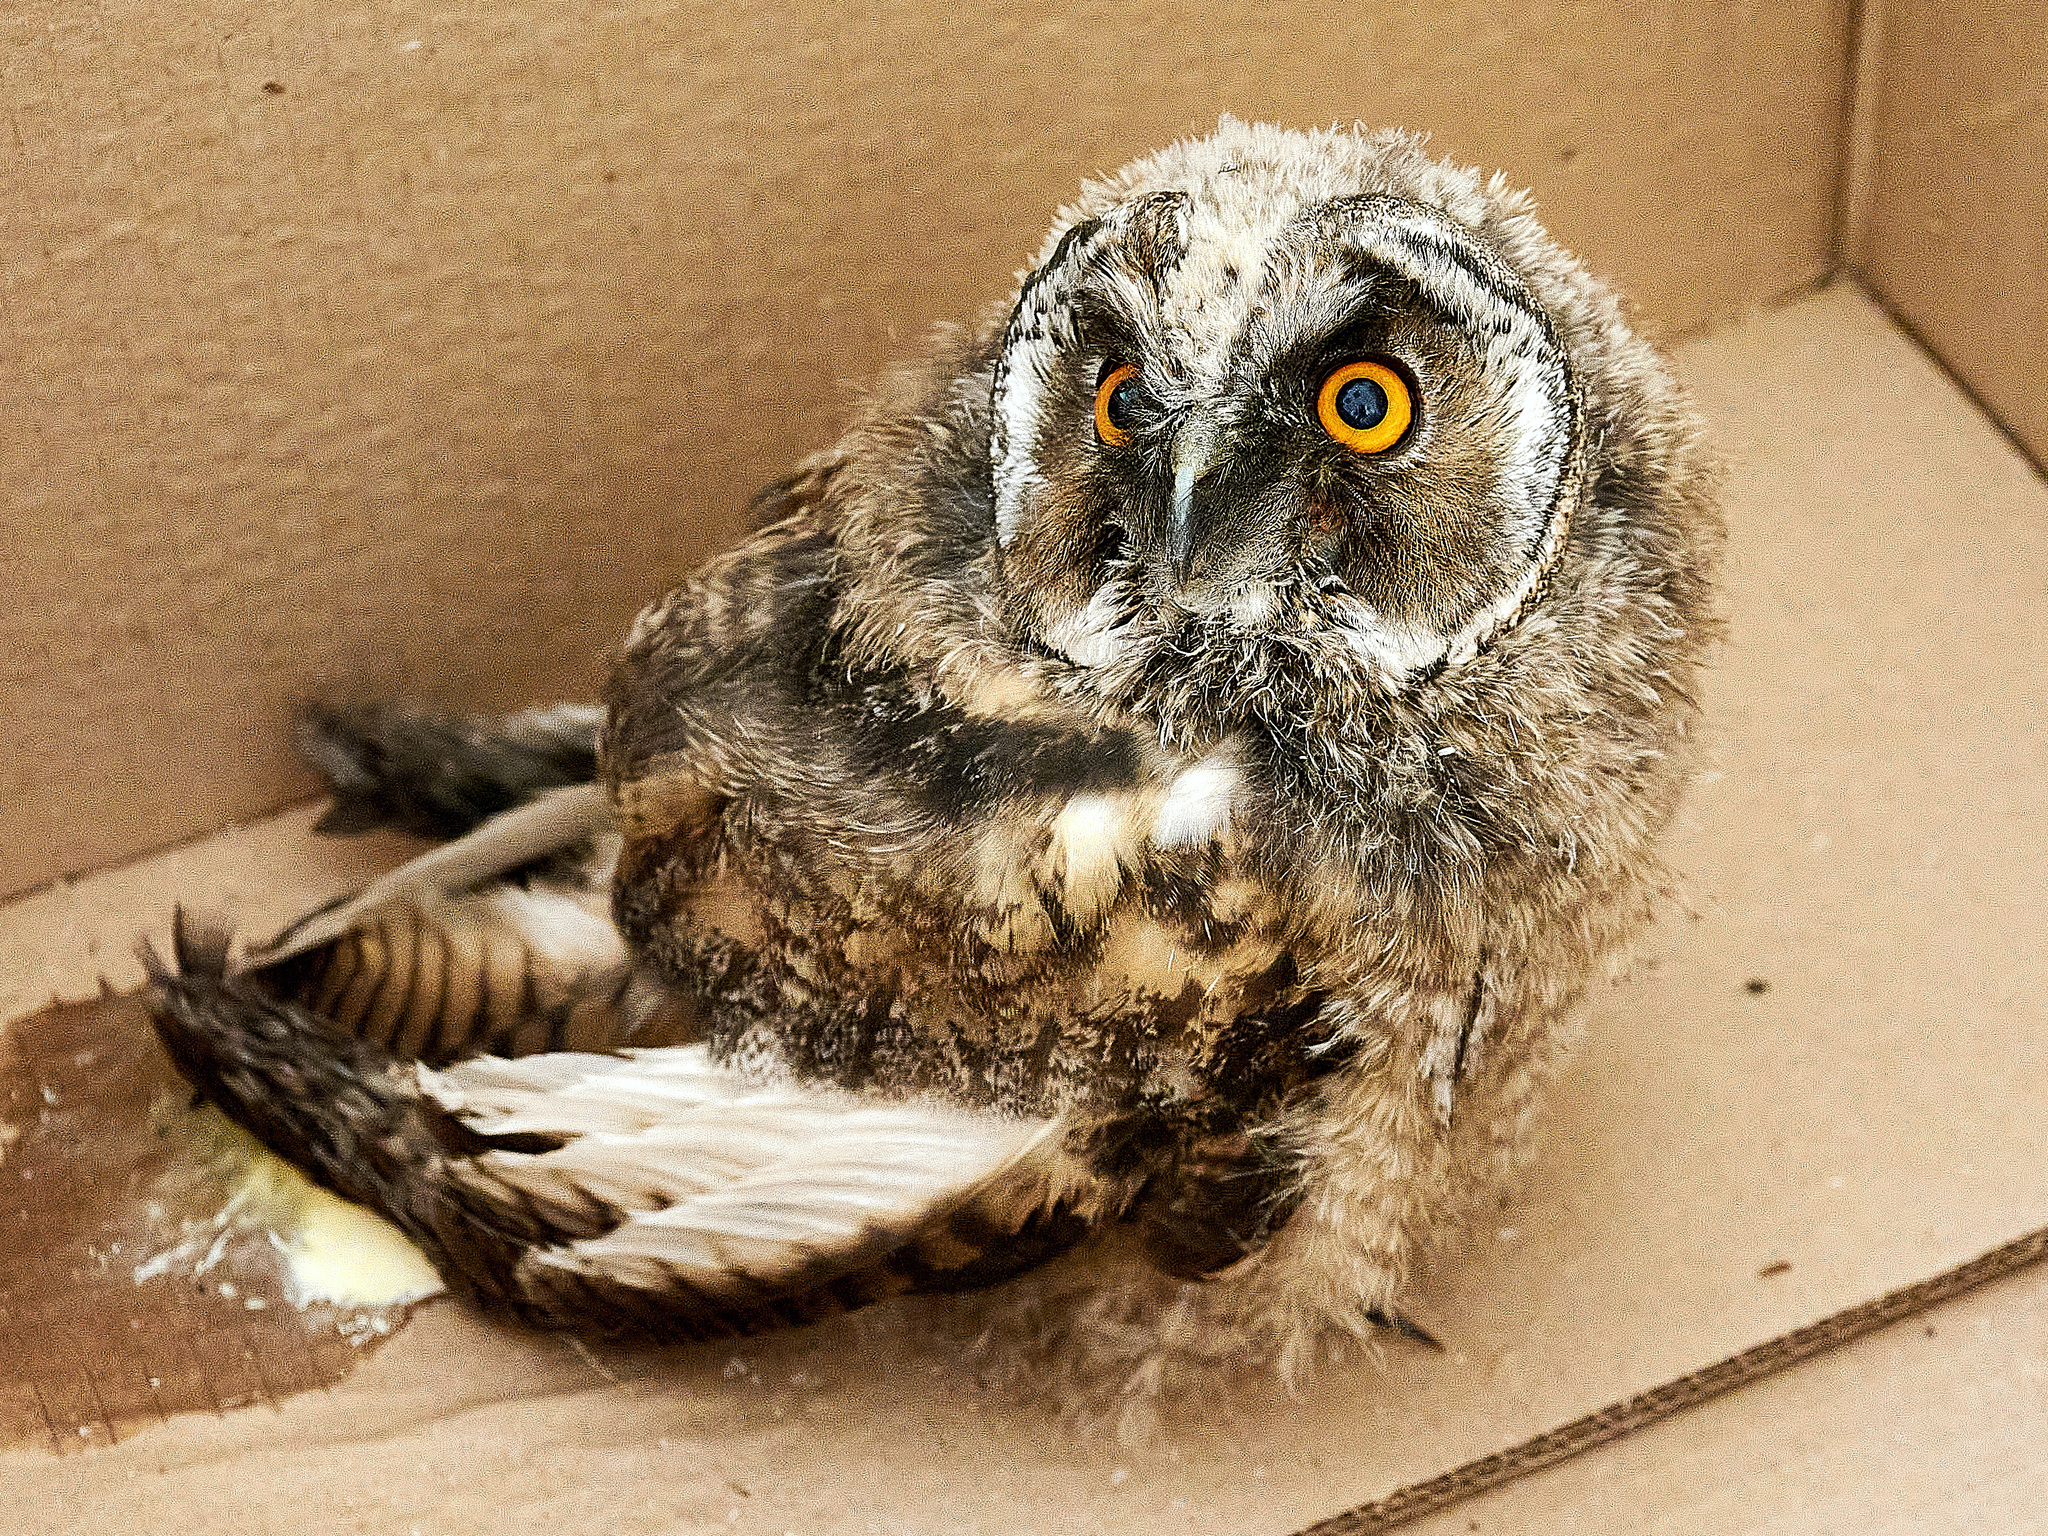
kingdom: Animalia
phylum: Chordata
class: Aves
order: Strigiformes
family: Strigidae
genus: Asio
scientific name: Asio otus
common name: Long-eared owl
